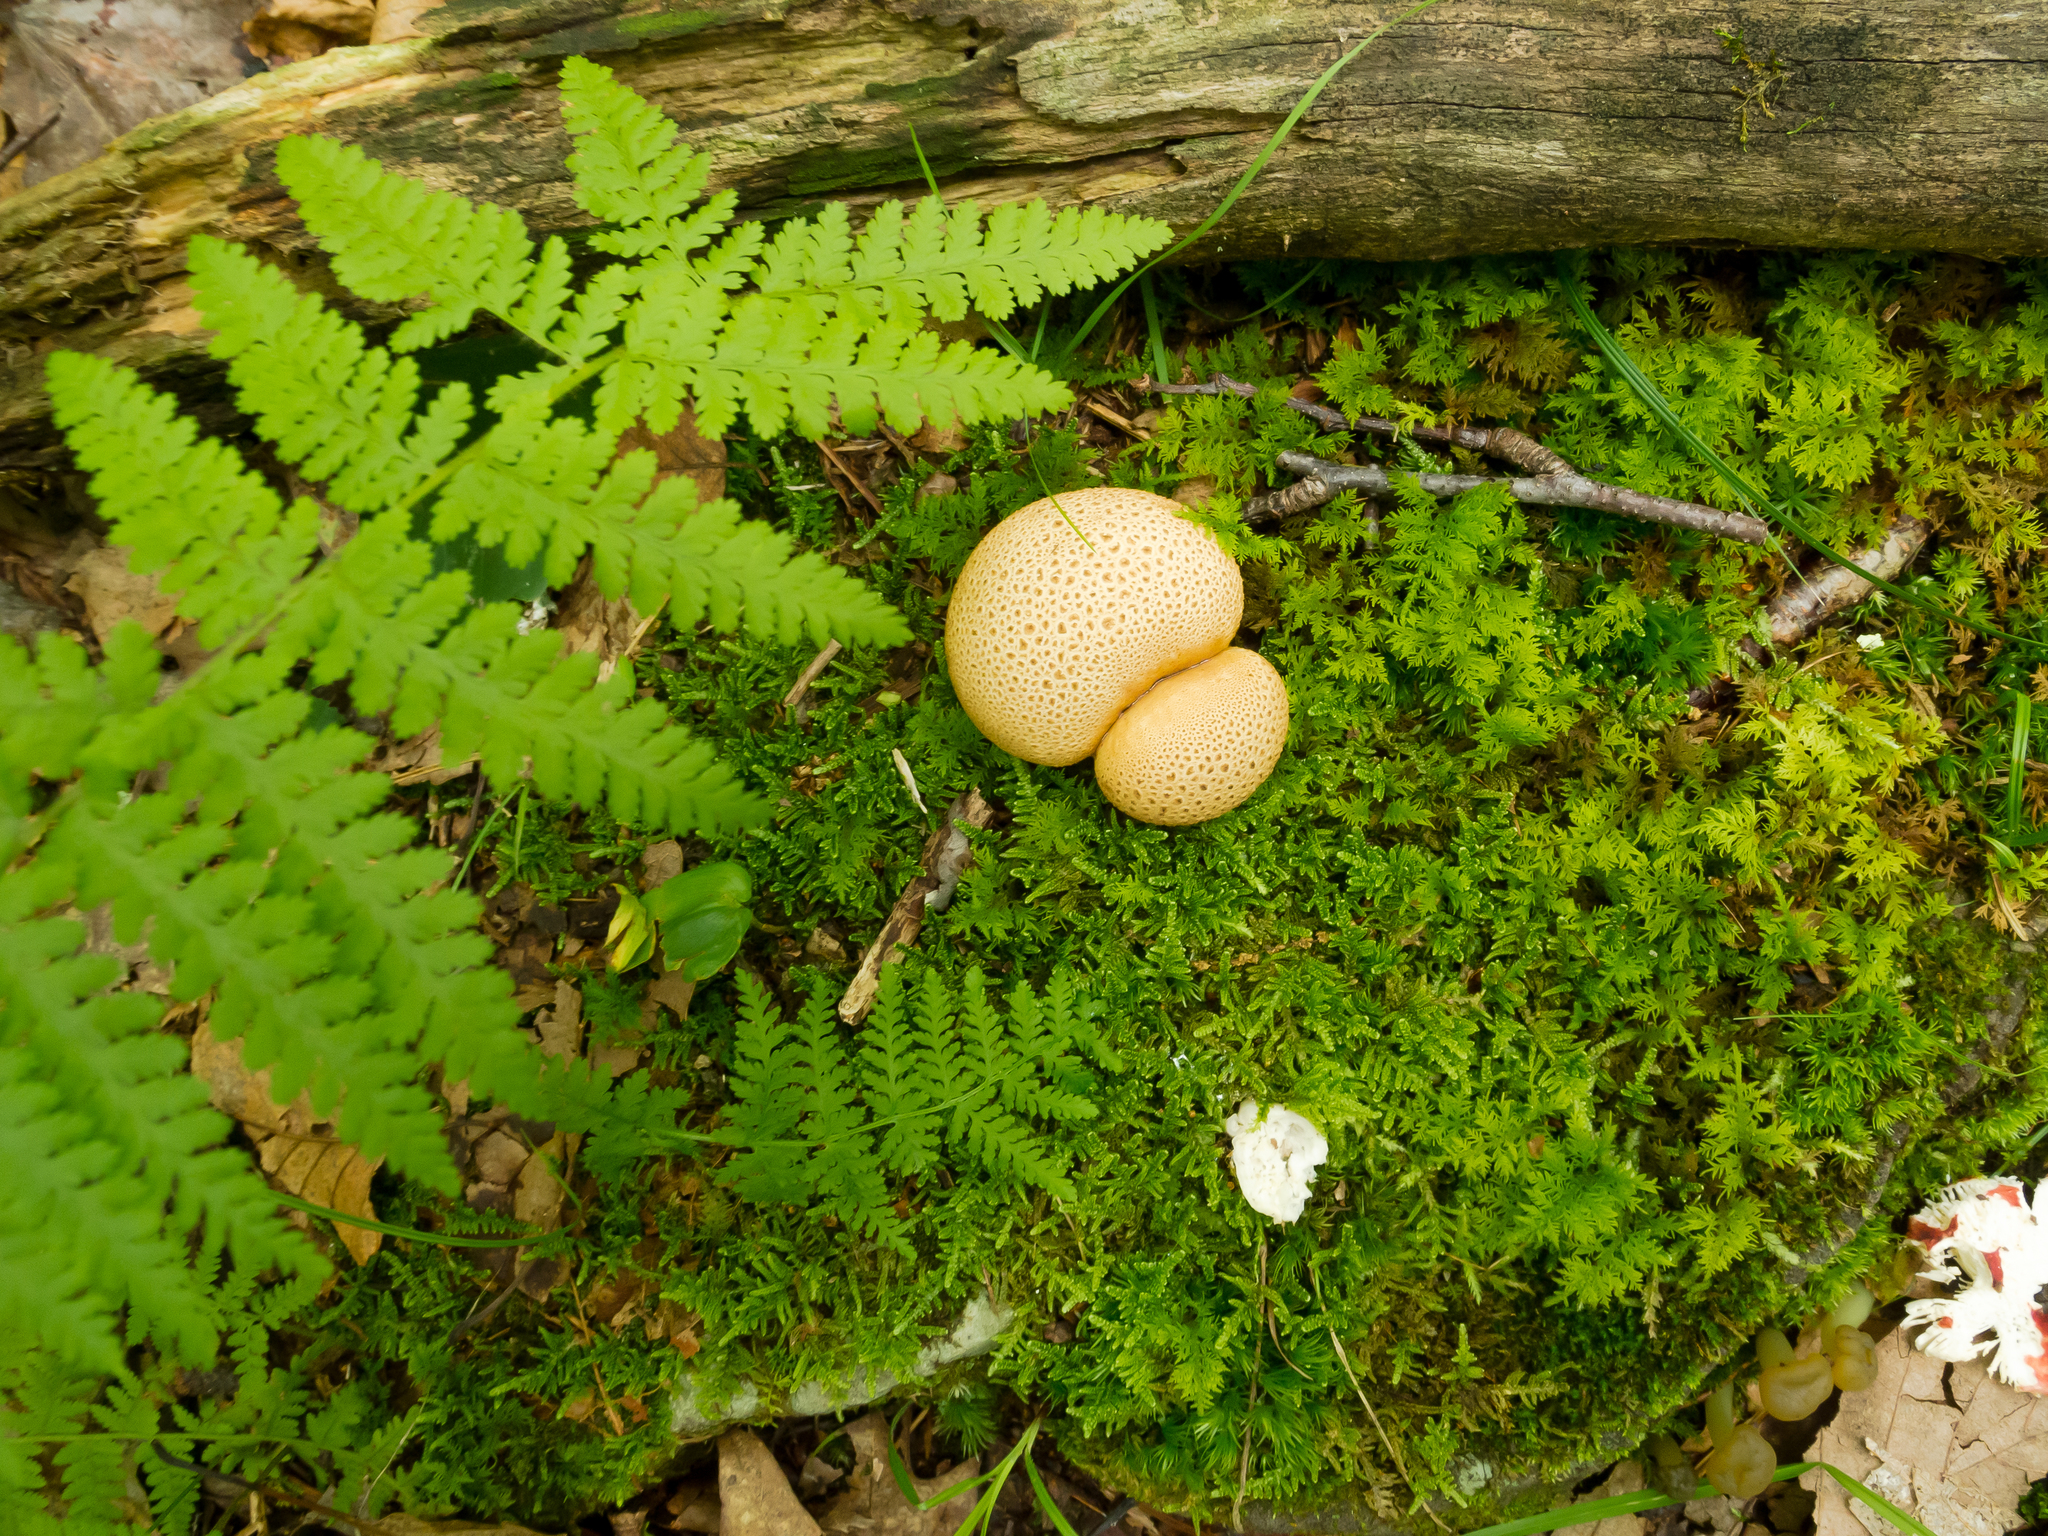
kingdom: Plantae
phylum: Bryophyta
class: Bryopsida
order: Hypnales
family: Thuidiaceae
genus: Thuidium
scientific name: Thuidium delicatulum
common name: Delicate fern moss
